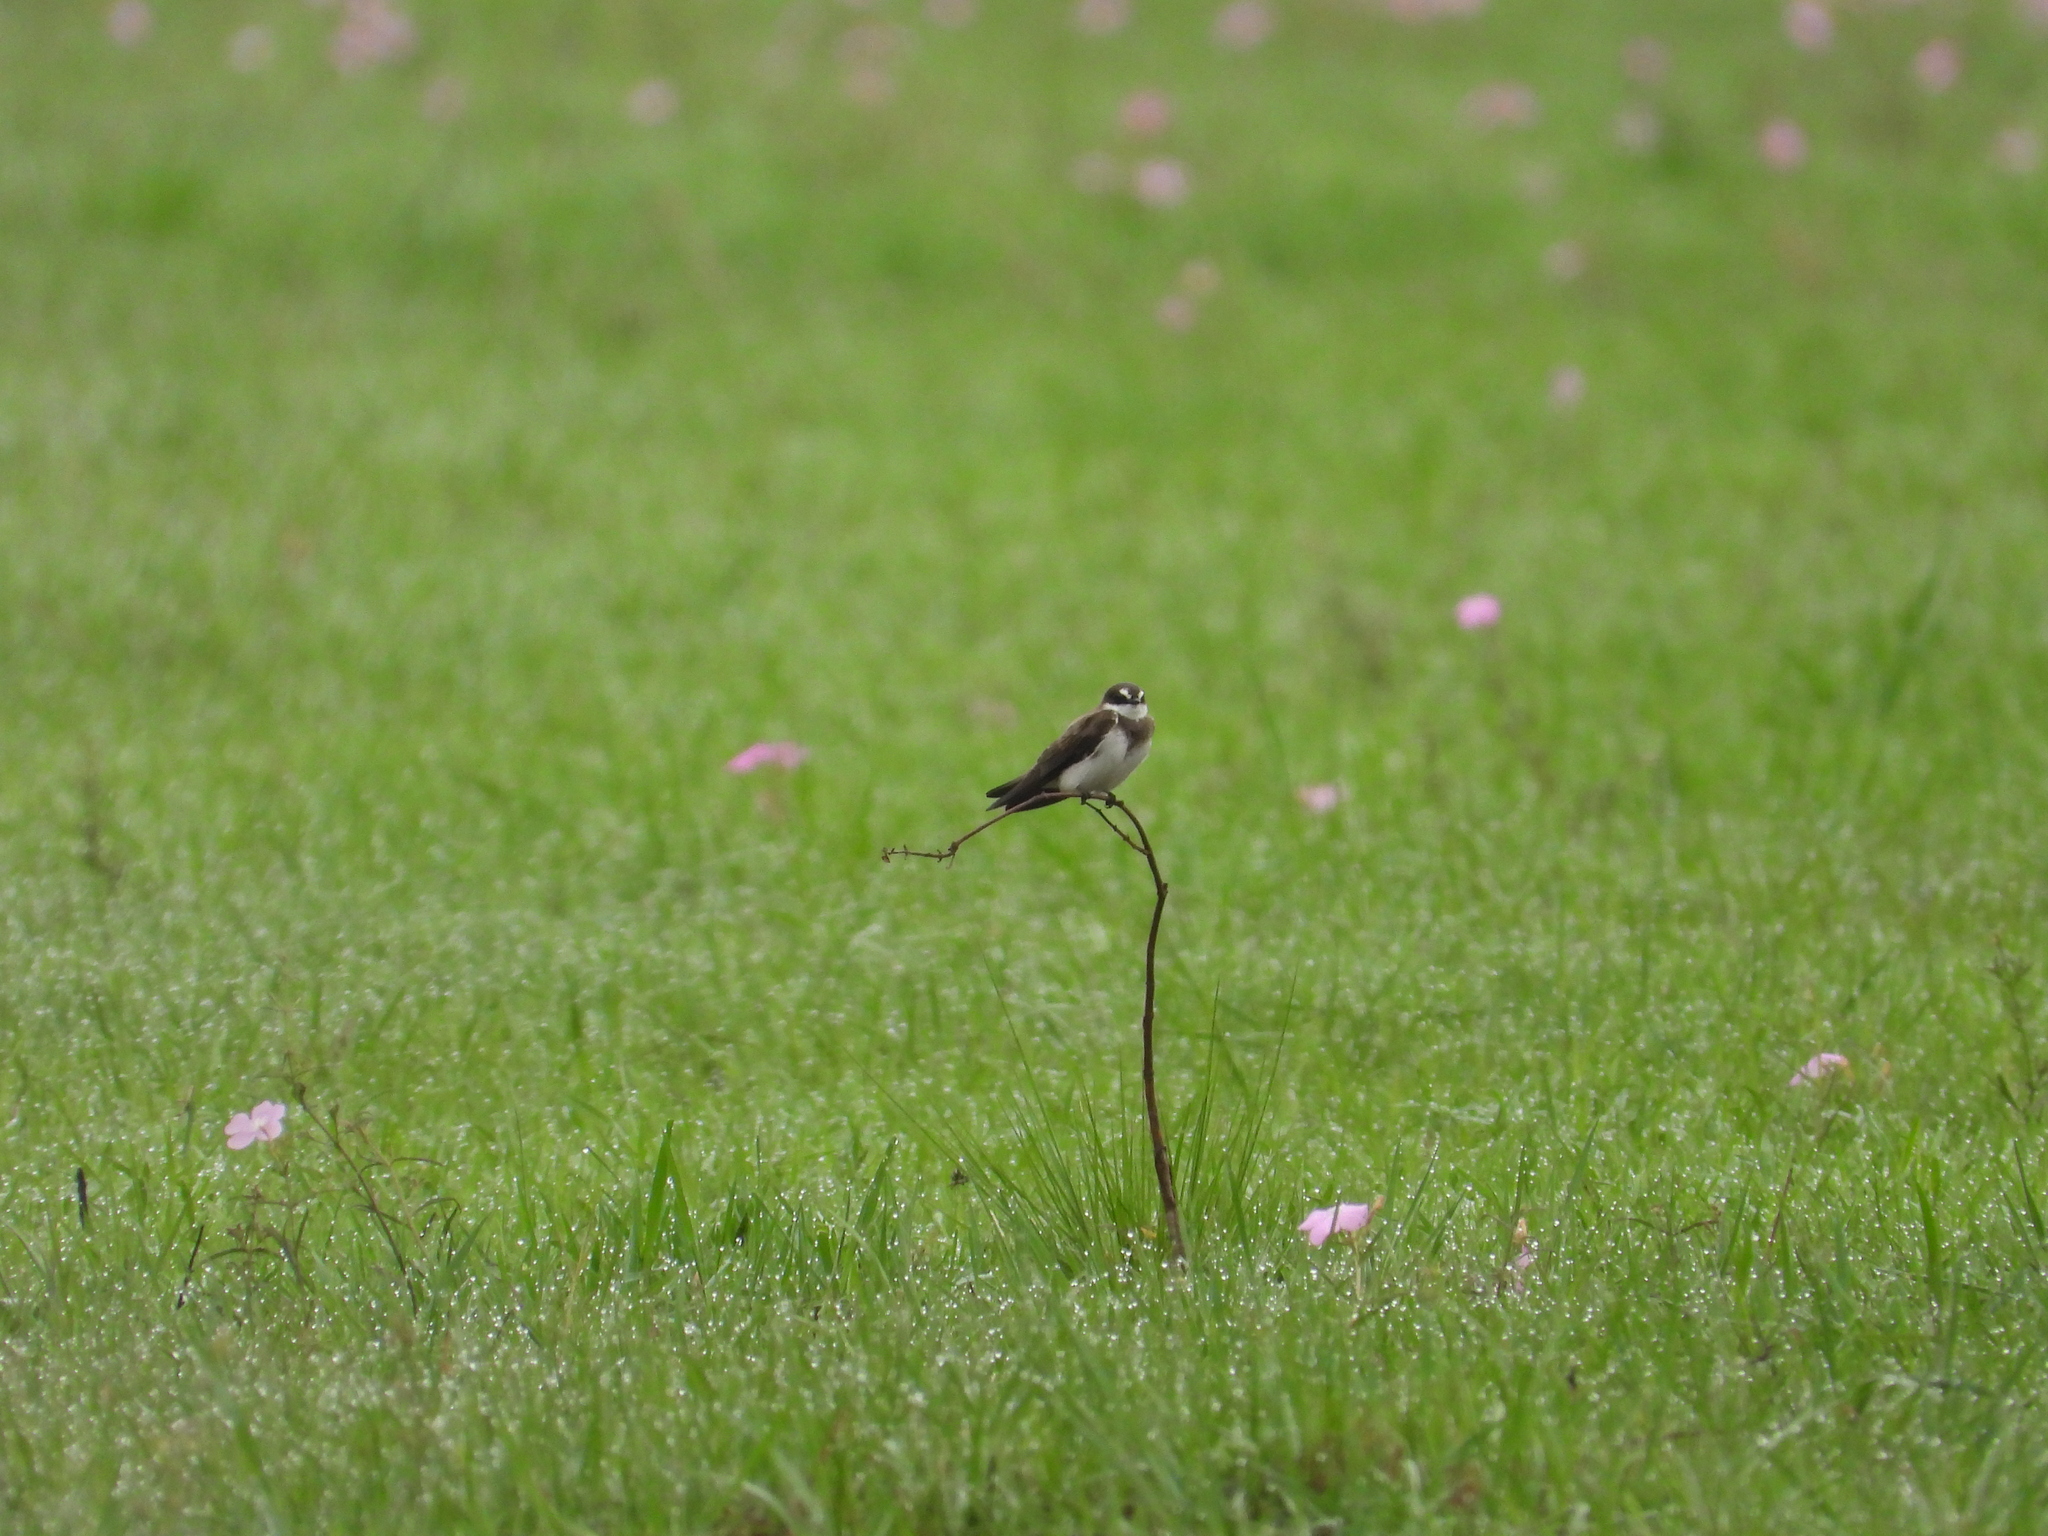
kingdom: Animalia
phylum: Chordata
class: Aves
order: Passeriformes
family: Hirundinidae
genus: Riparia
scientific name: Riparia cincta
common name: Banded martin
